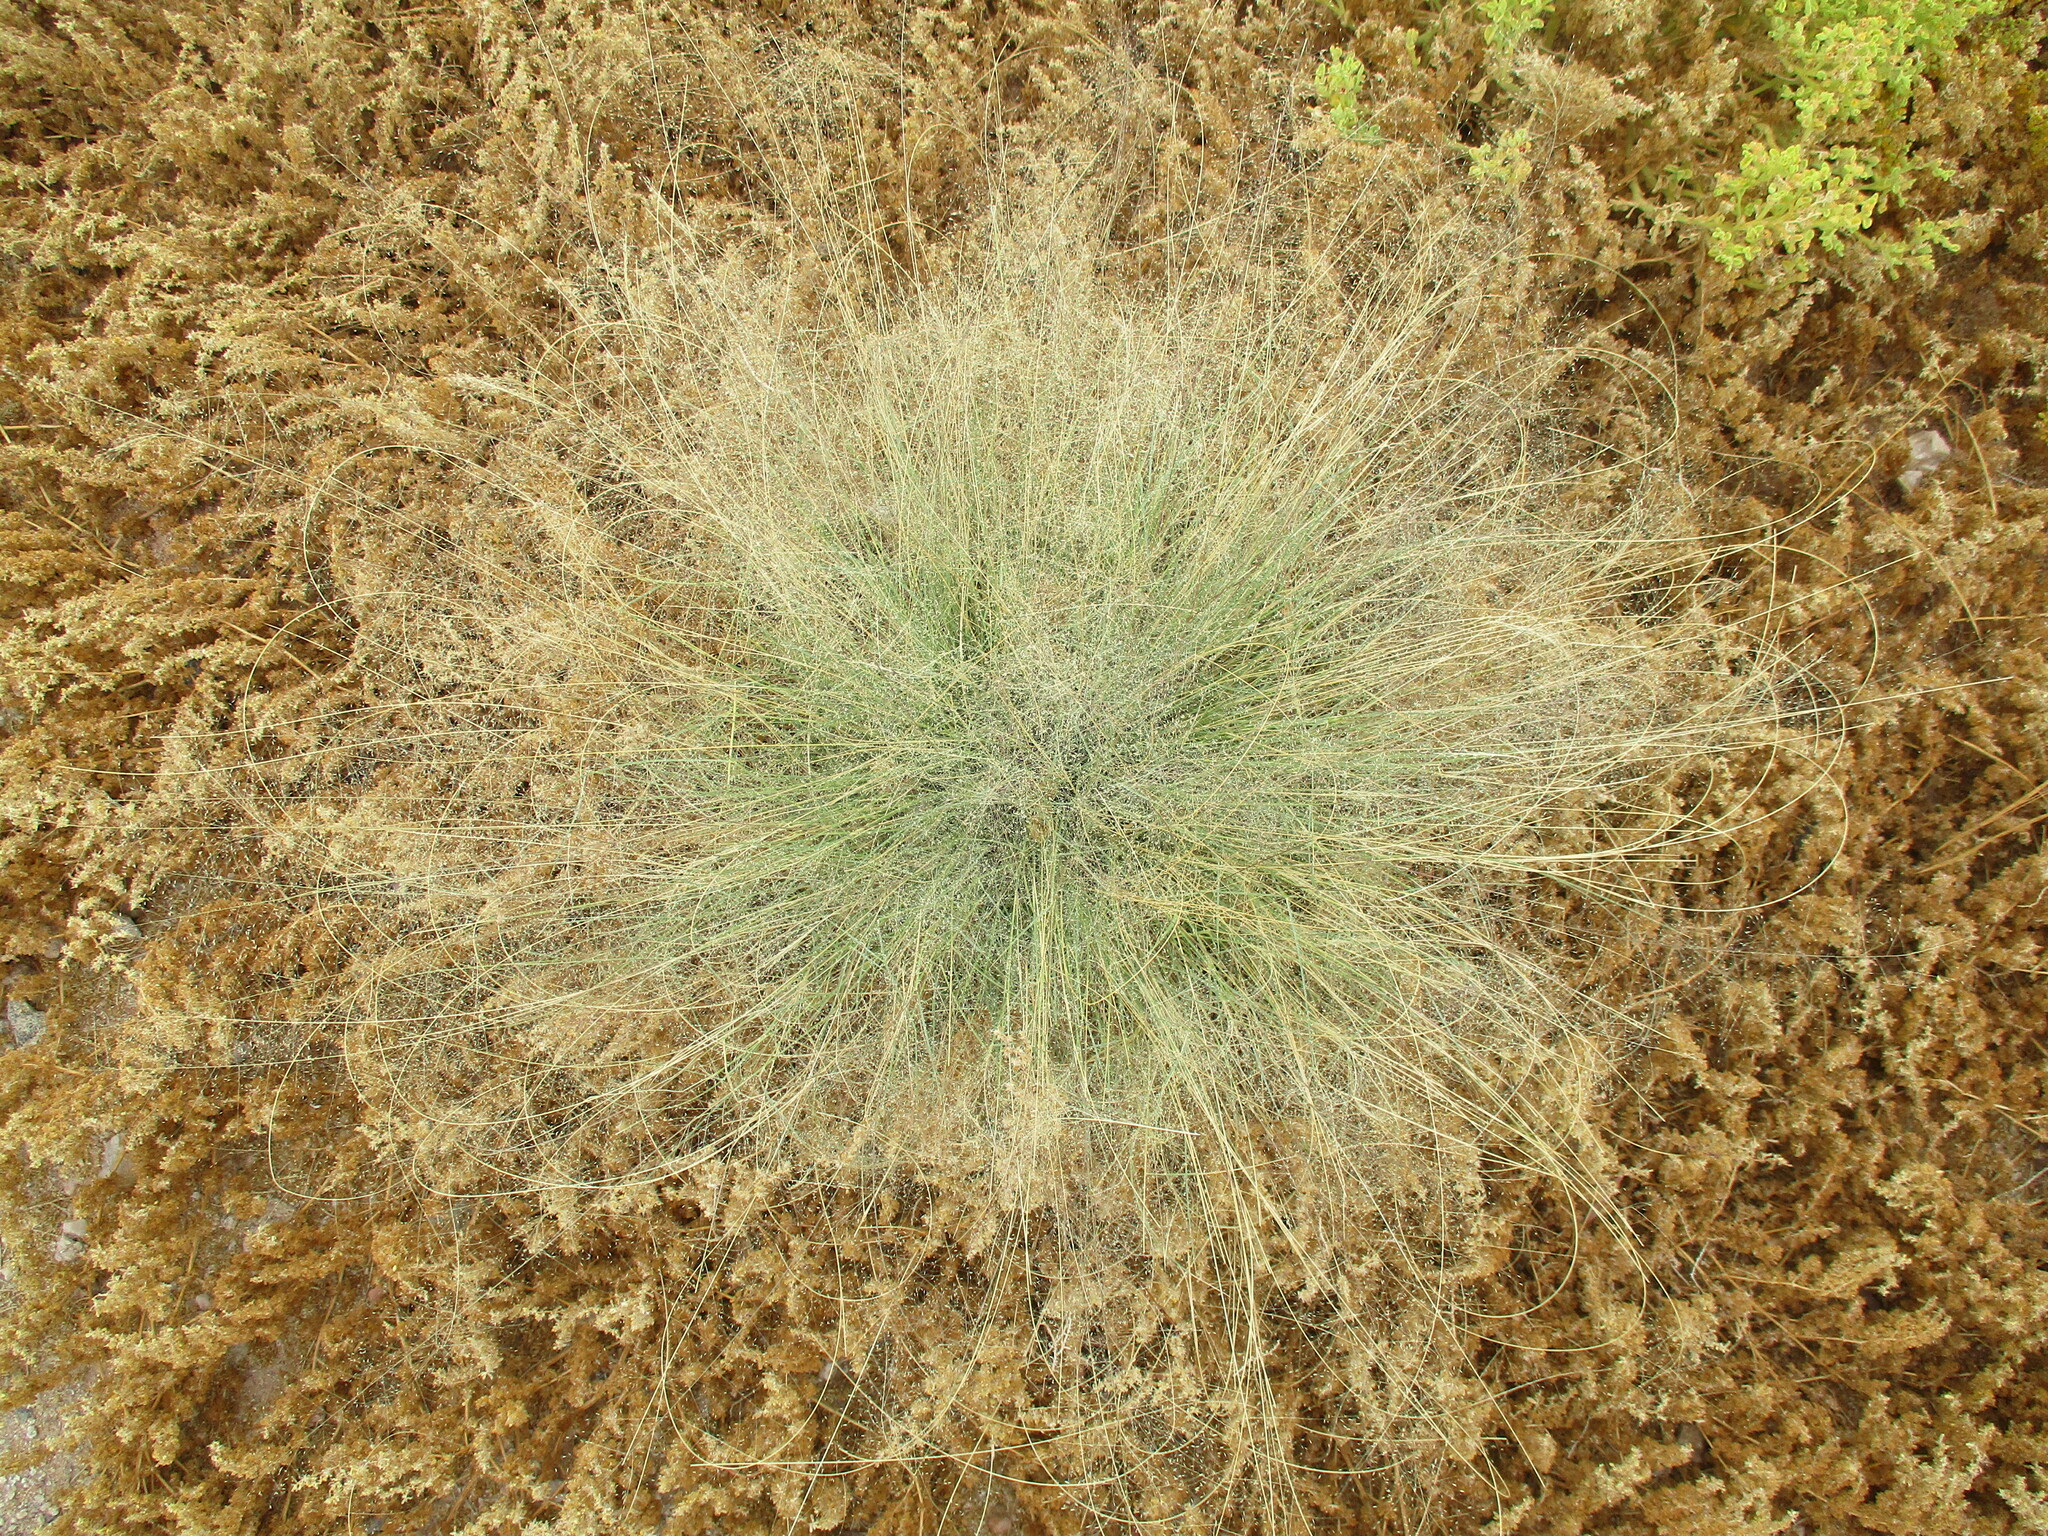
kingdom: Plantae
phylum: Tracheophyta
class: Liliopsida
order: Poales
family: Poaceae
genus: Sporobolus
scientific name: Sporobolus nebulosus
